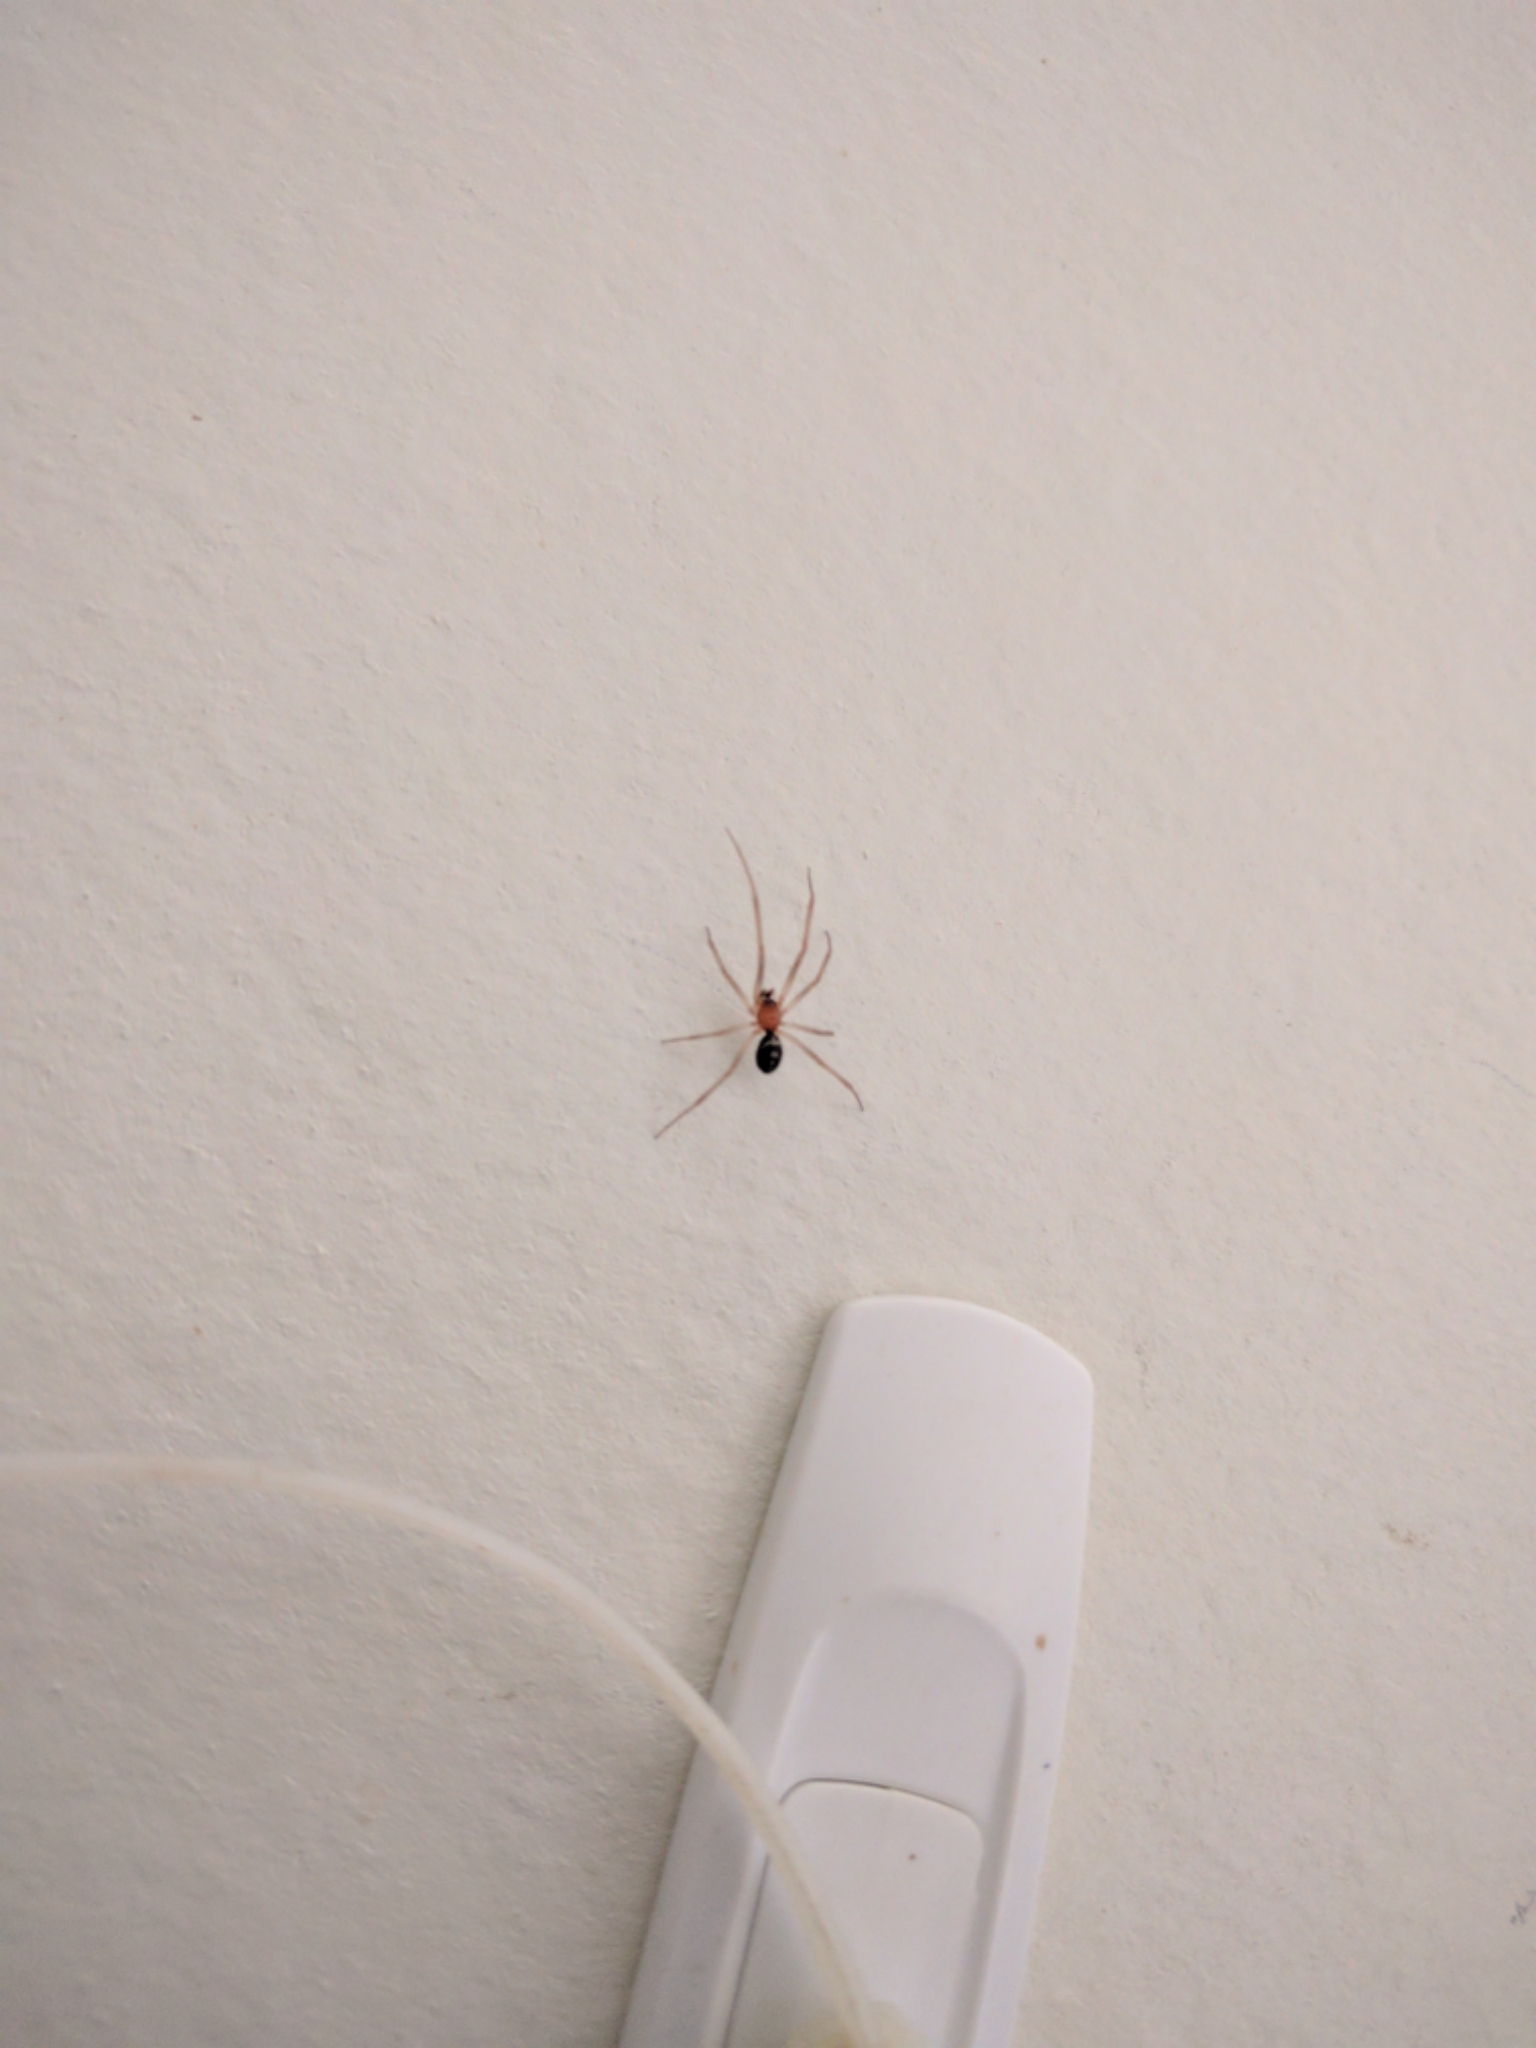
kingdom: Animalia
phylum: Arthropoda
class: Arachnida
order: Araneae
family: Theridiidae
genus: Steatoda
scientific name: Steatoda grossa
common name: False black widow
